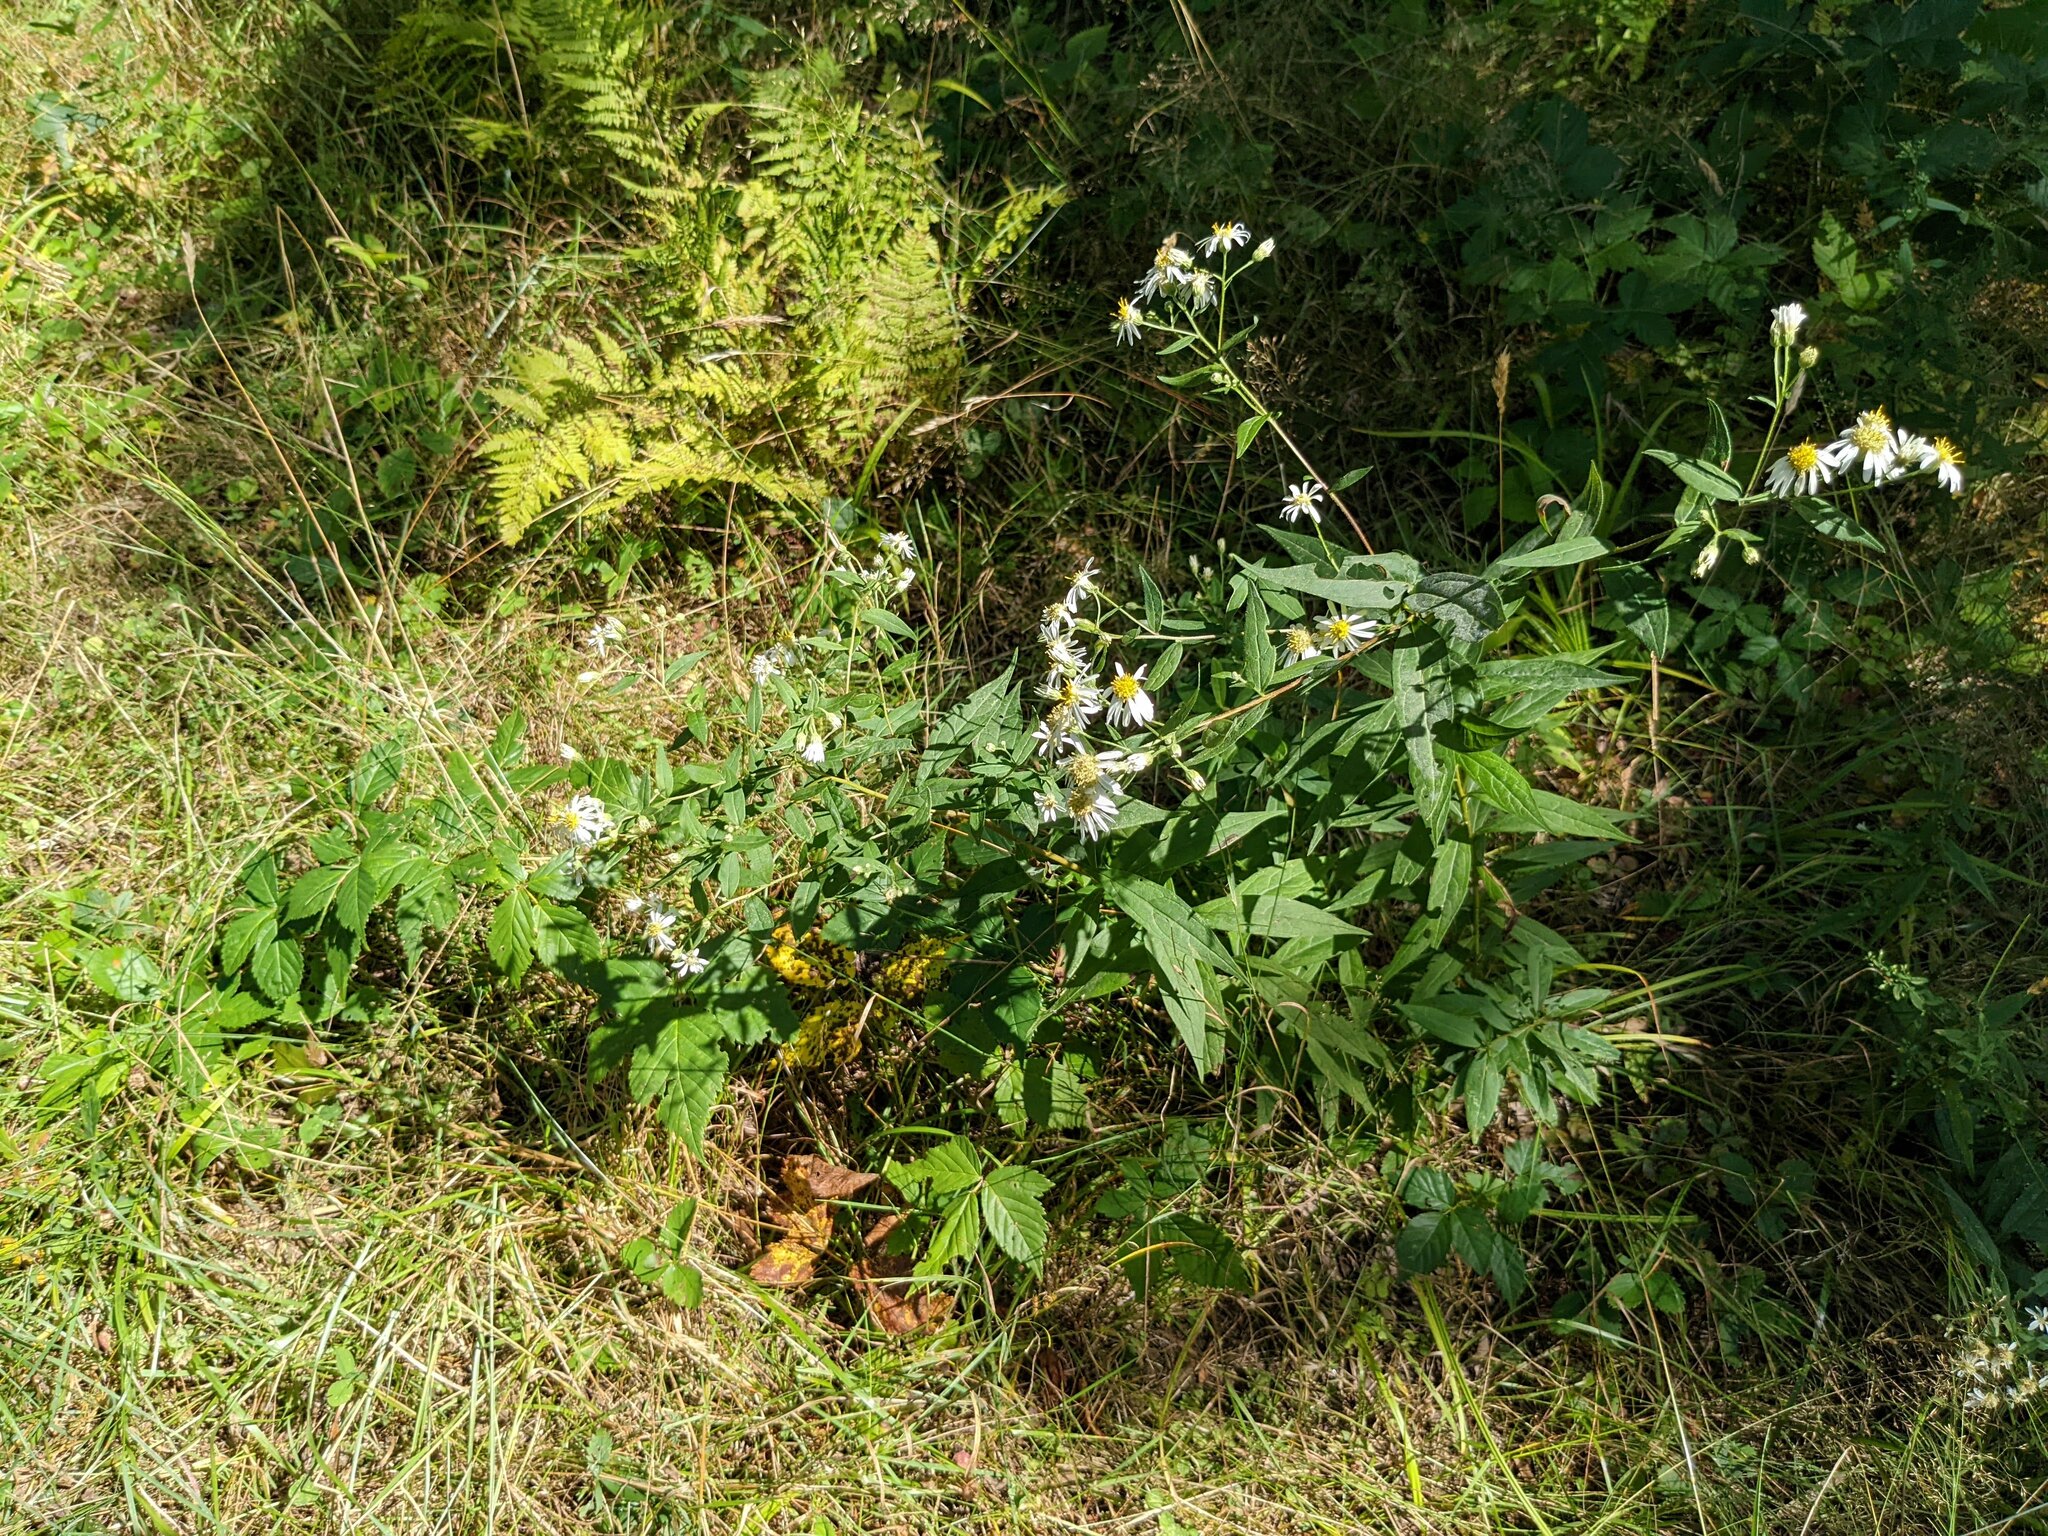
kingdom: Plantae
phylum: Tracheophyta
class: Magnoliopsida
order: Asterales
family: Asteraceae
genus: Symphyotrichum
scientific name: Symphyotrichum lanceolatum
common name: Panicled aster
